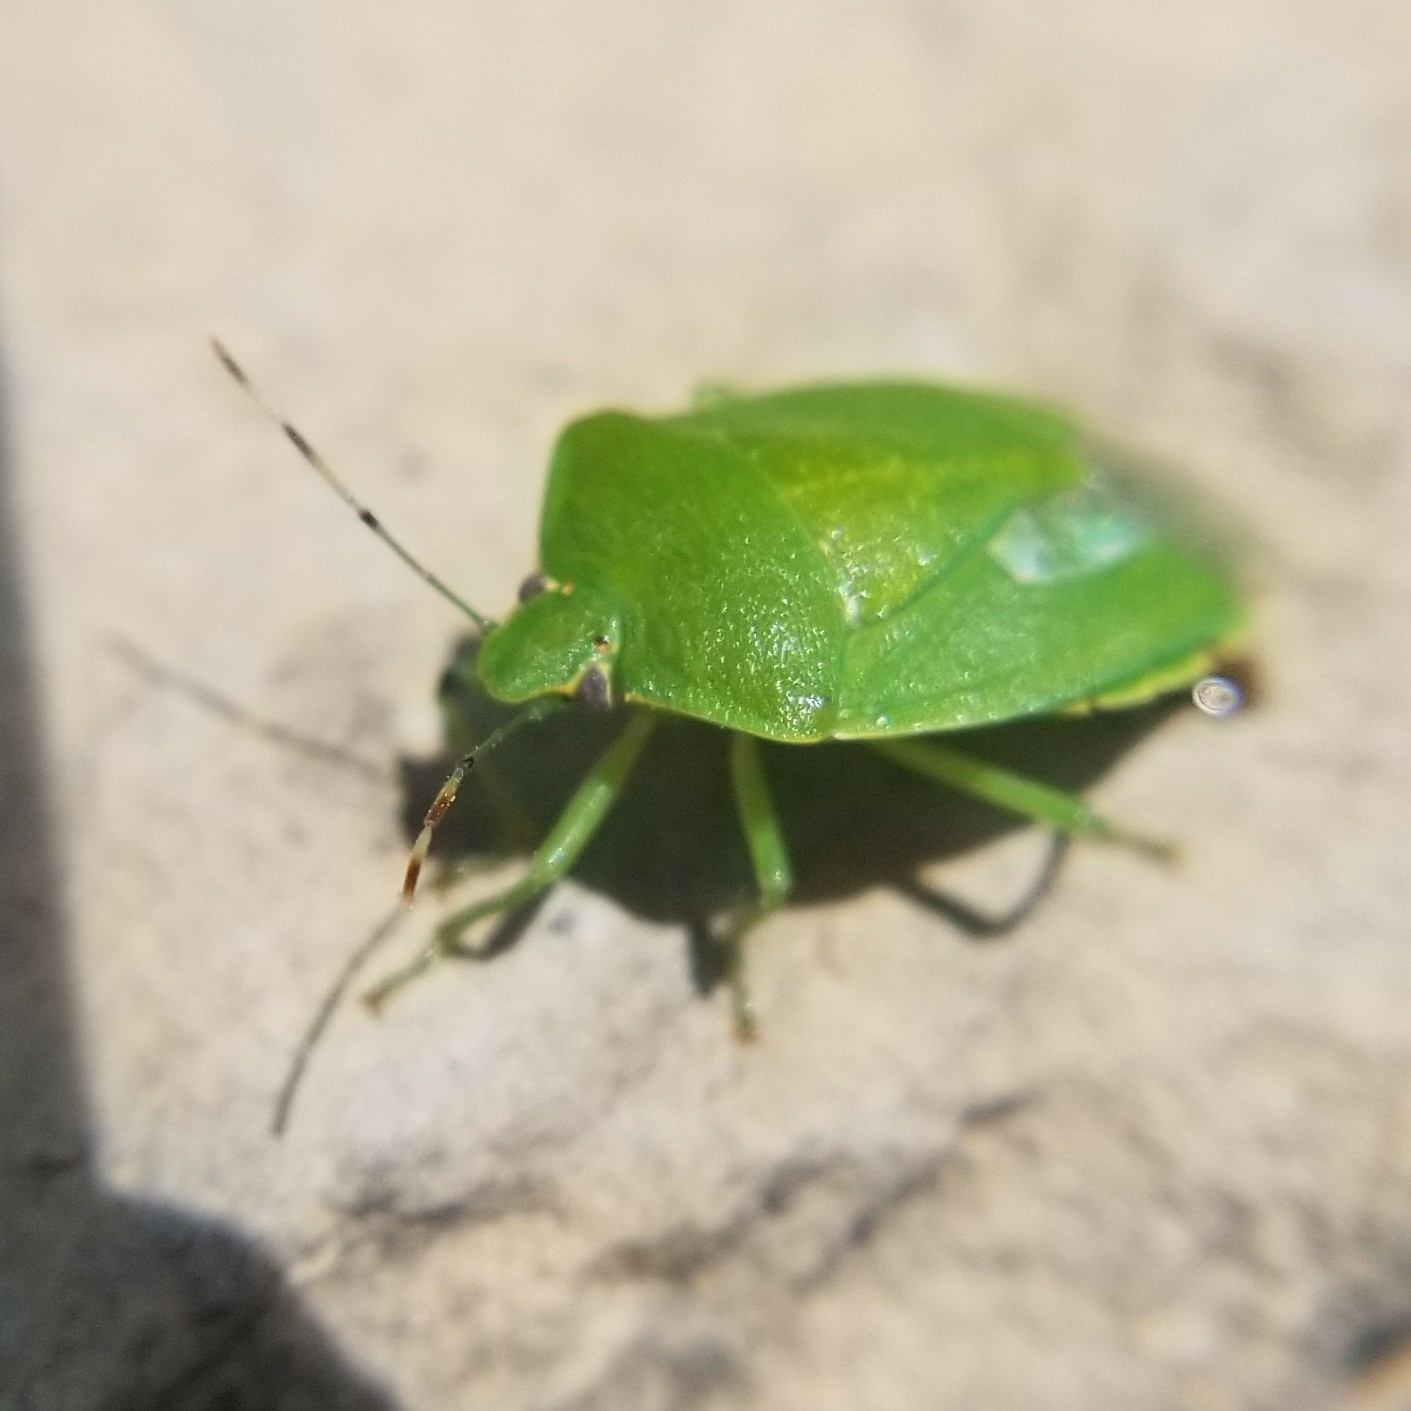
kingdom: Animalia
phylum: Arthropoda
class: Insecta
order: Hemiptera
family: Pentatomidae
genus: Chinavia
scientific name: Chinavia hilaris
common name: Green stink bug
